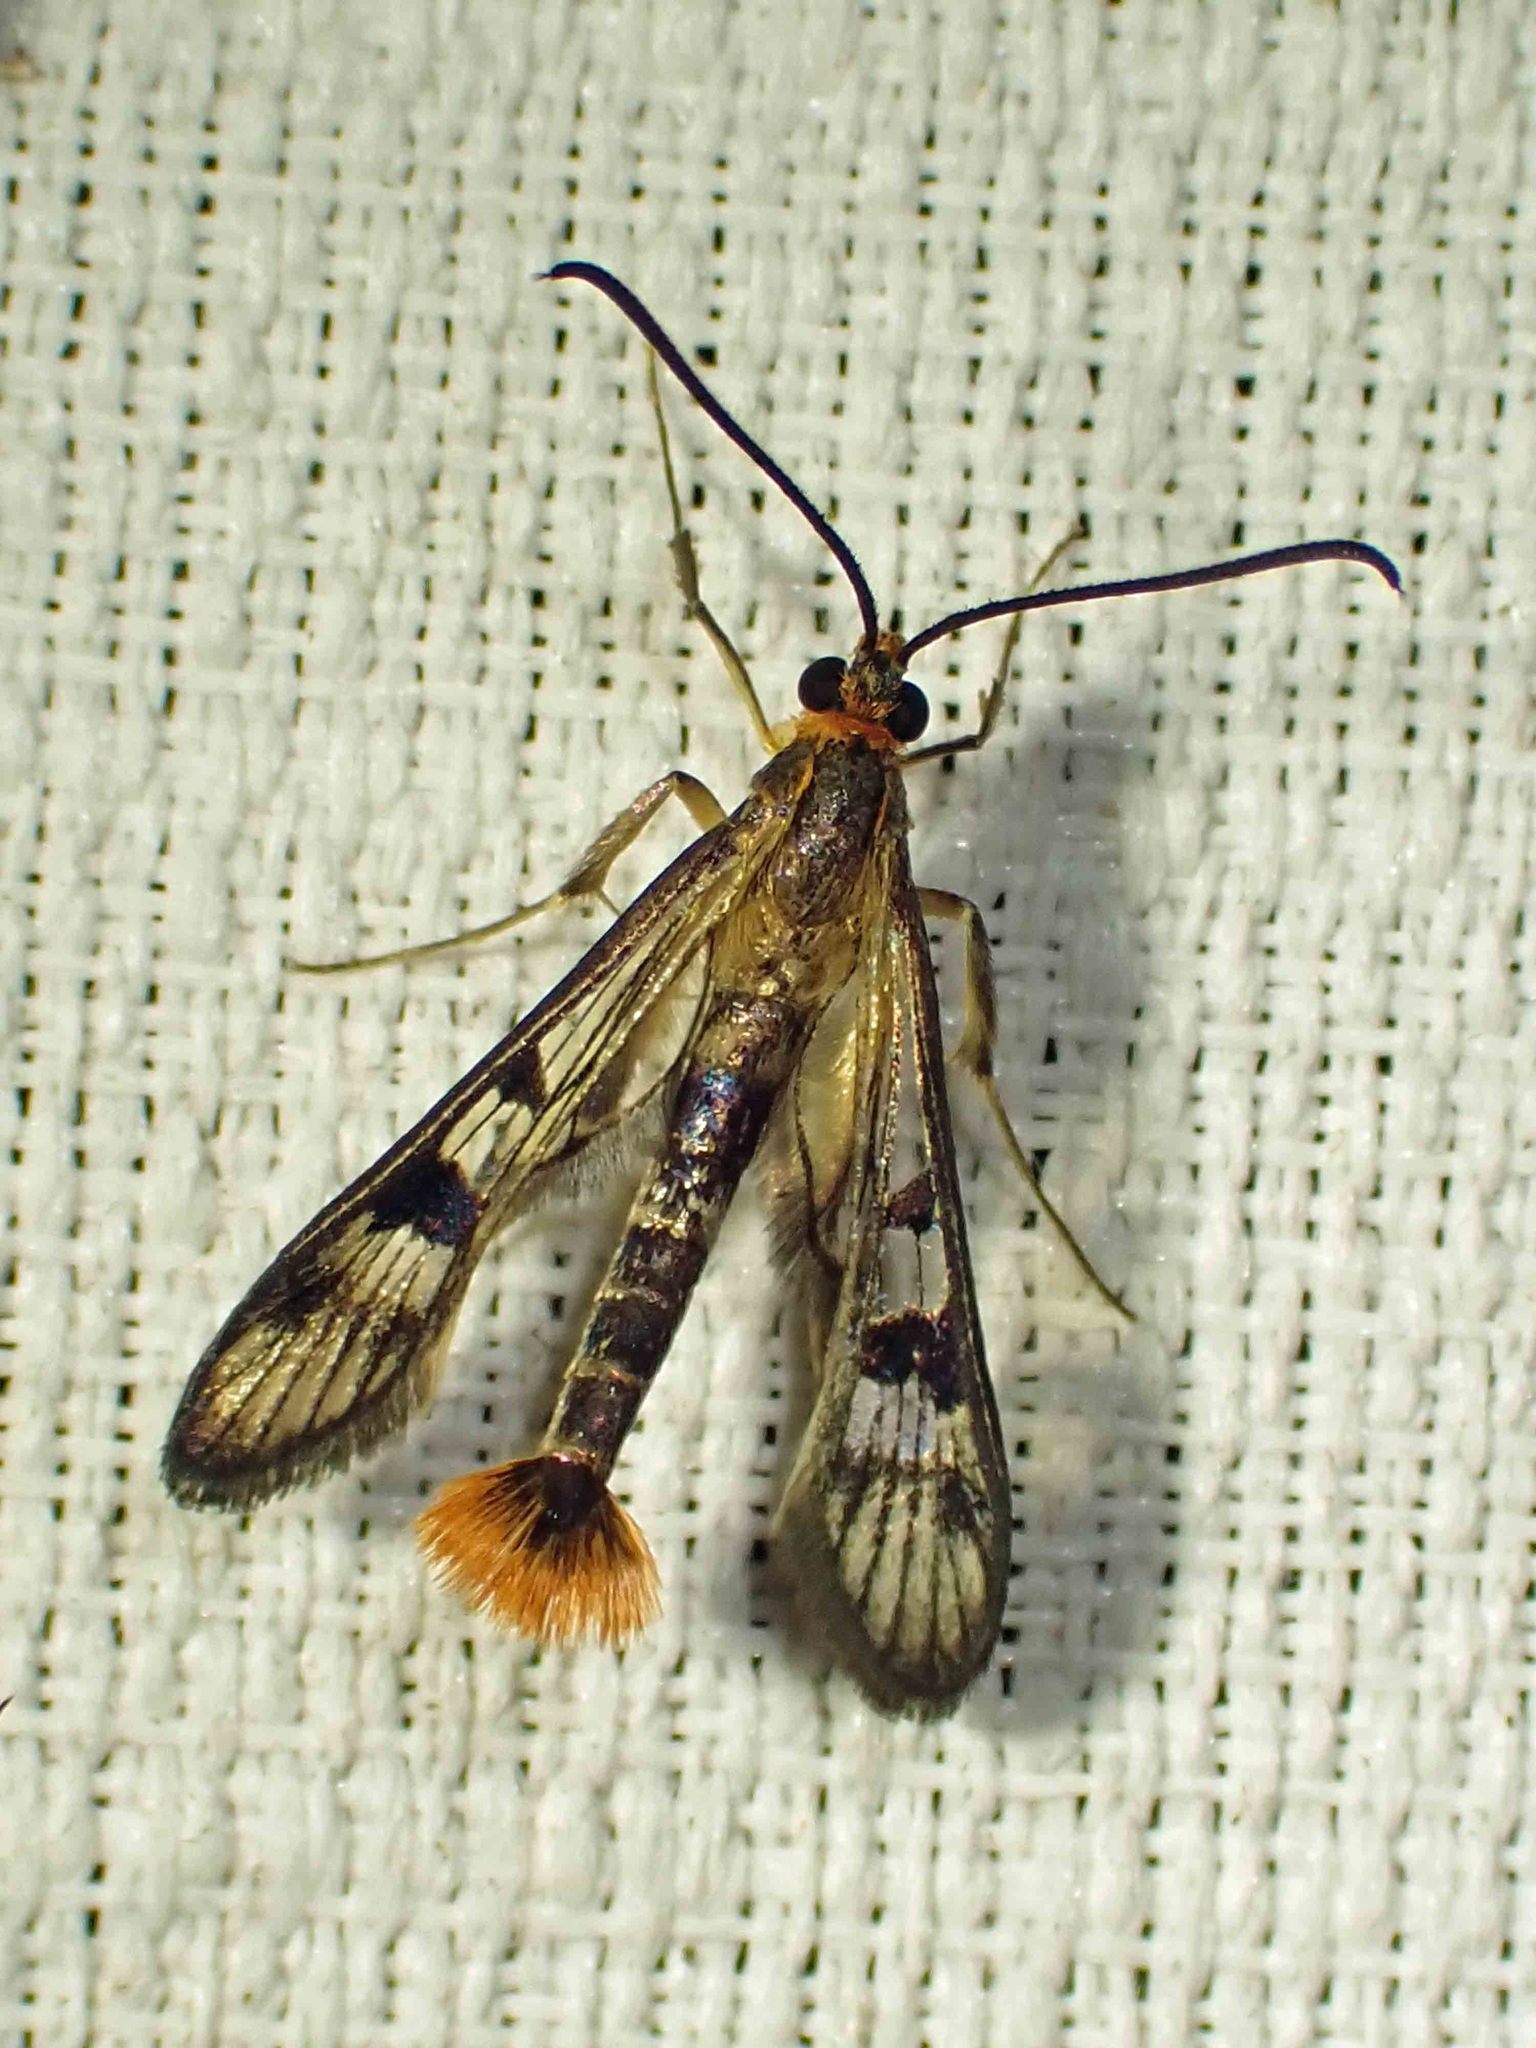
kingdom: Animalia
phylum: Arthropoda
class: Insecta
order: Lepidoptera
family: Sesiidae
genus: Synanthedon
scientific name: Synanthedon acerni
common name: Maple callus borer moth
